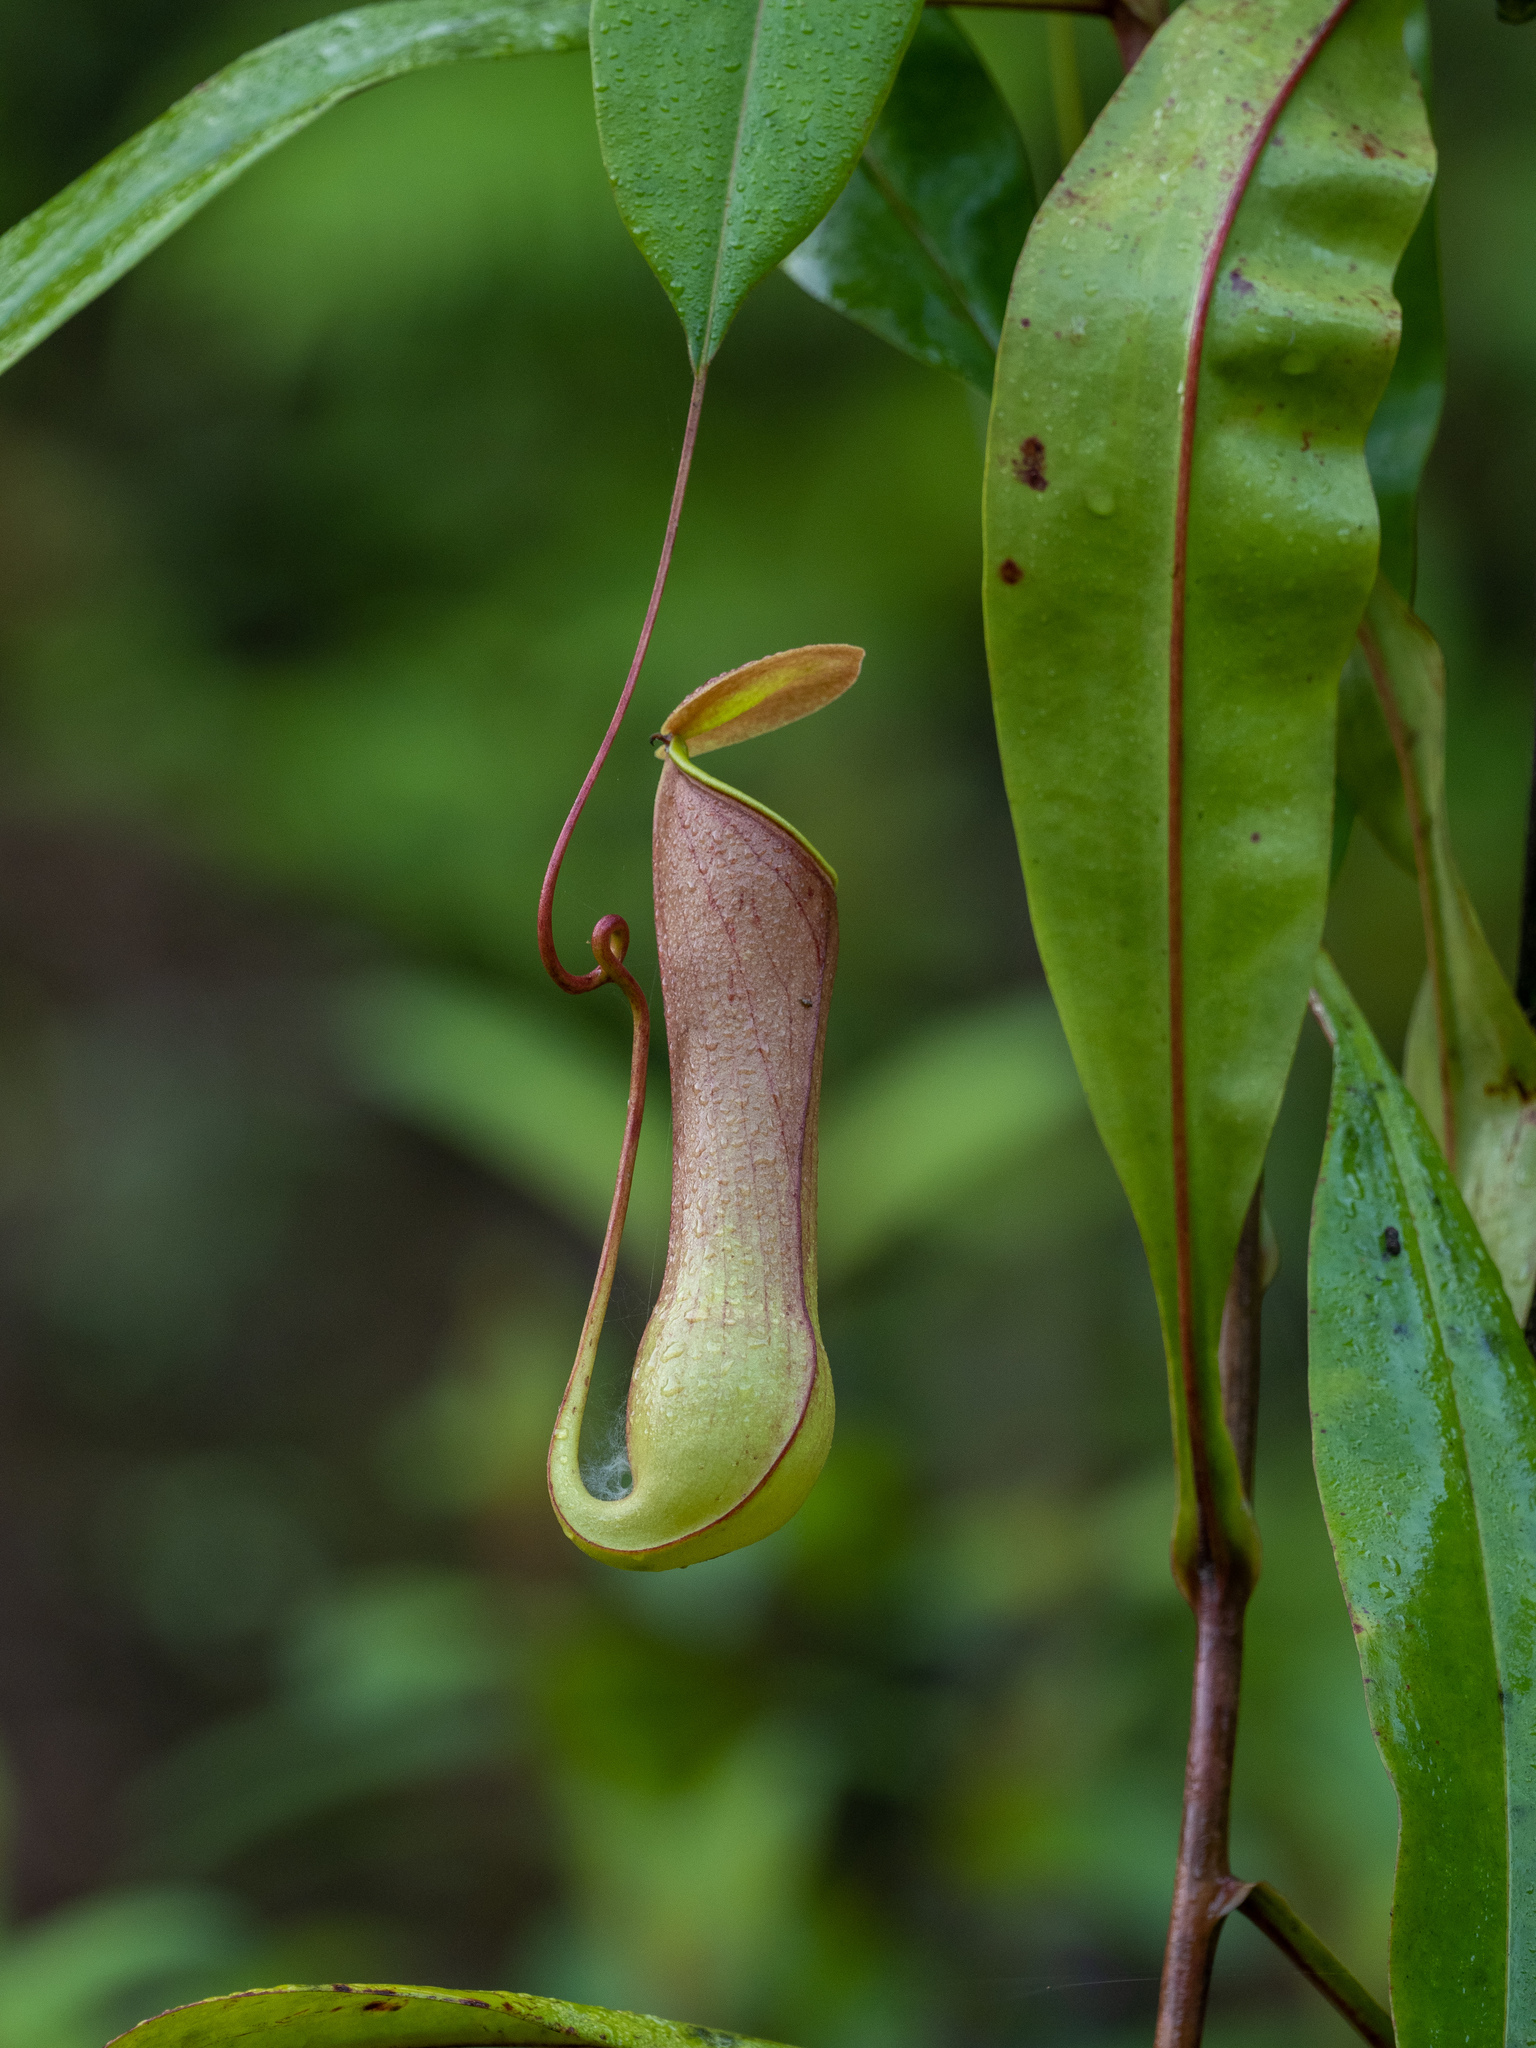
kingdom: Plantae
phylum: Tracheophyta
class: Magnoliopsida
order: Caryophyllales
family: Nepenthaceae
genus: Nepenthes
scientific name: Nepenthes distillatoria
